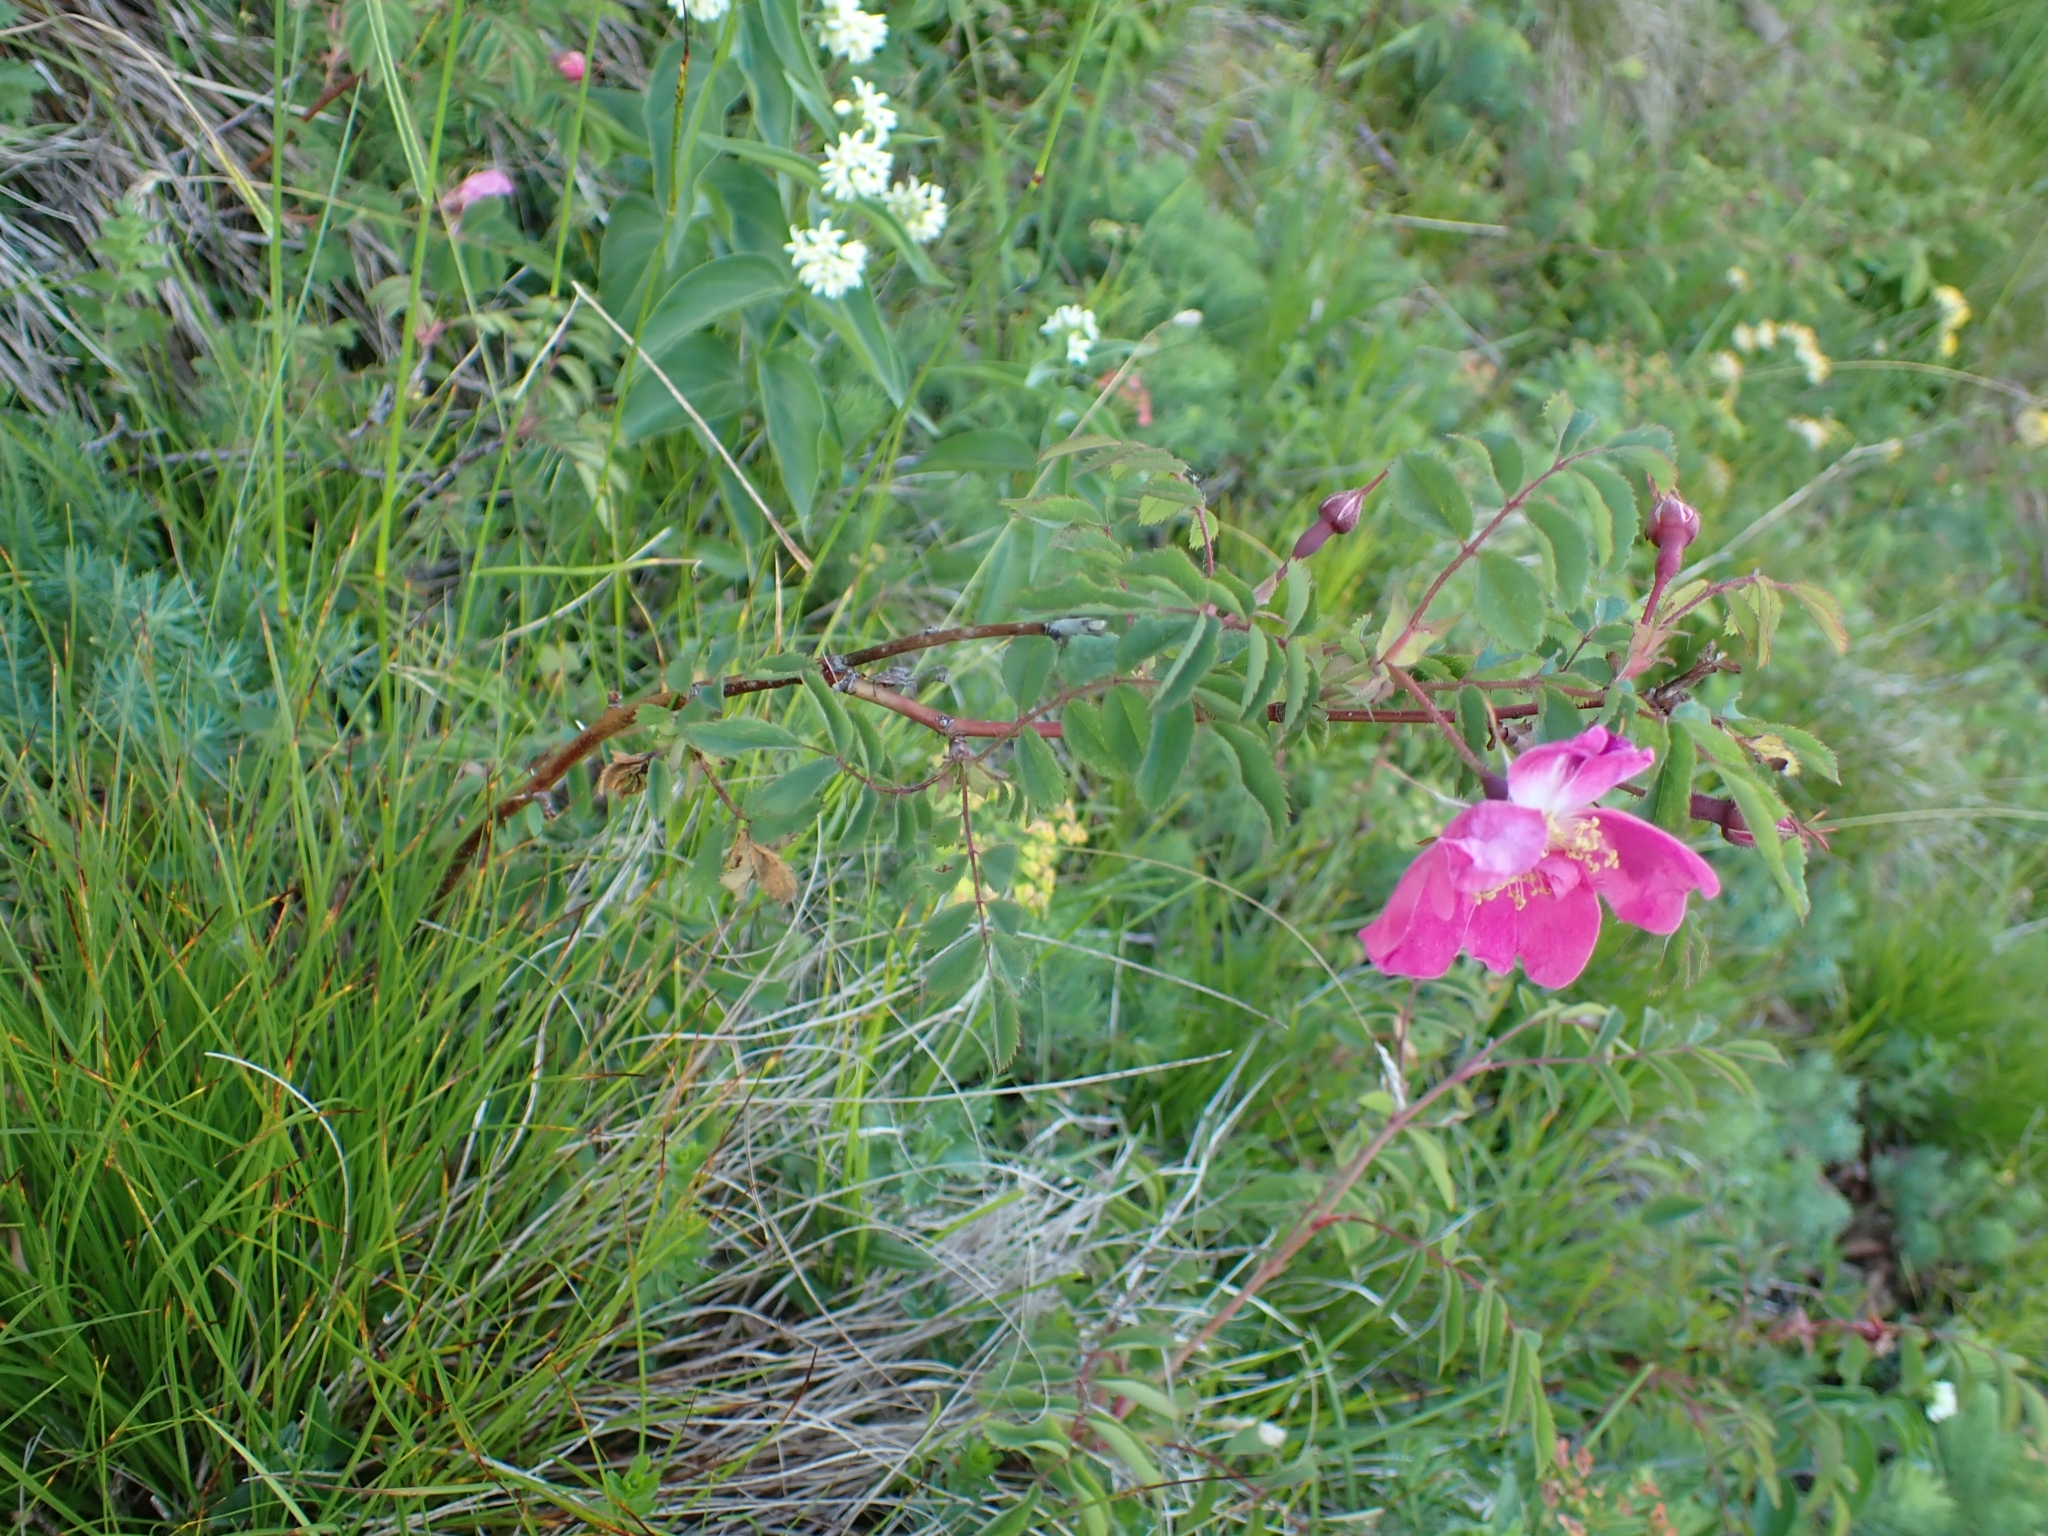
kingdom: Plantae
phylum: Tracheophyta
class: Magnoliopsida
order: Rosales
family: Rosaceae
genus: Rosa
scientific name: Rosa pendulina
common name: Alpine rose
